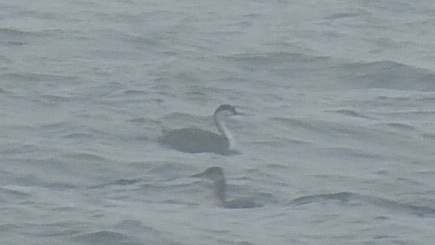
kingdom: Animalia
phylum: Chordata
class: Aves
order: Podicipediformes
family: Podicipedidae
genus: Aechmophorus
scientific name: Aechmophorus occidentalis
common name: Western grebe
